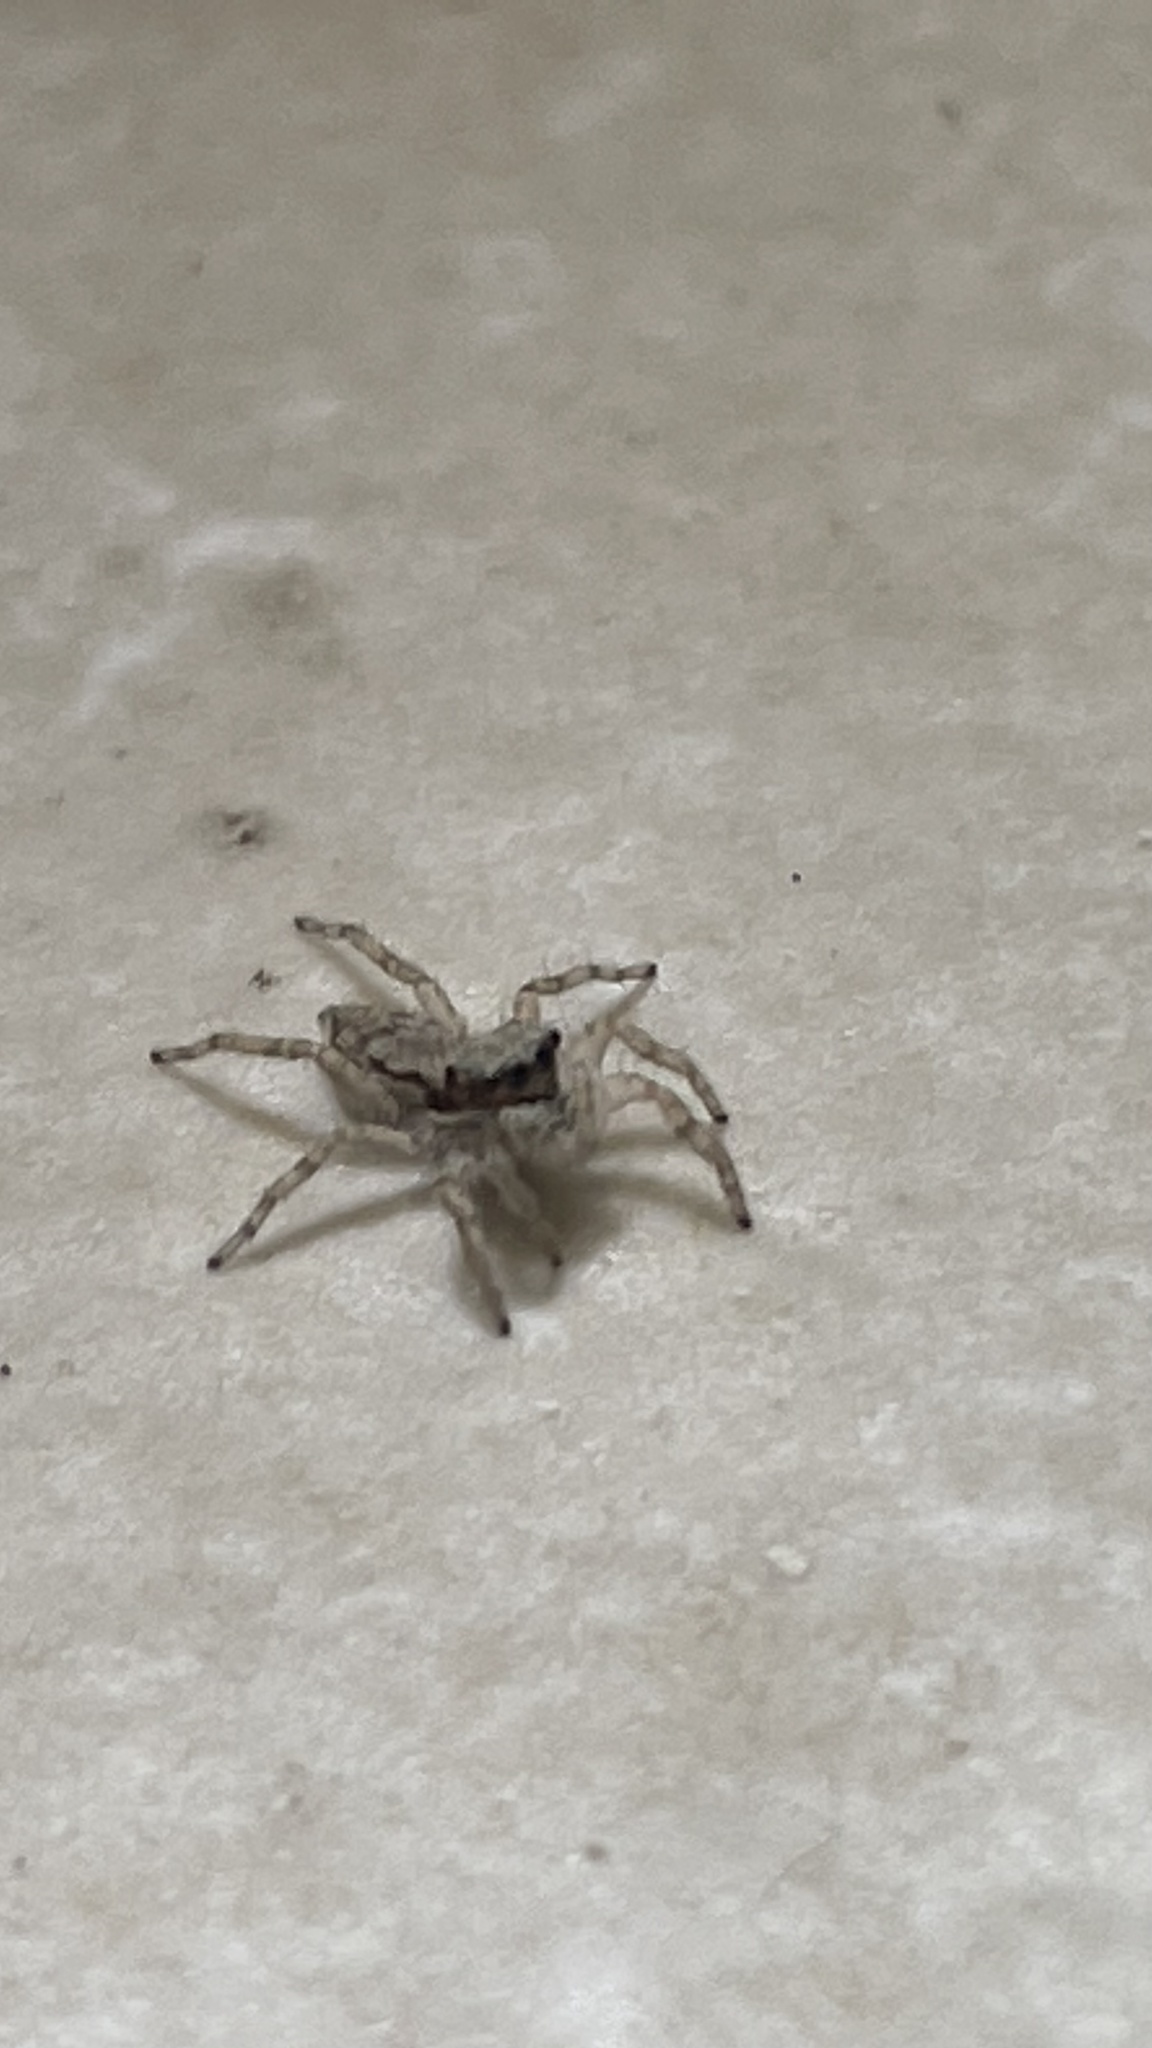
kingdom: Animalia
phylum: Arthropoda
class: Arachnida
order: Araneae
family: Salticidae
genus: Menemerus
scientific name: Menemerus bivittatus
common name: Gray wall jumper
